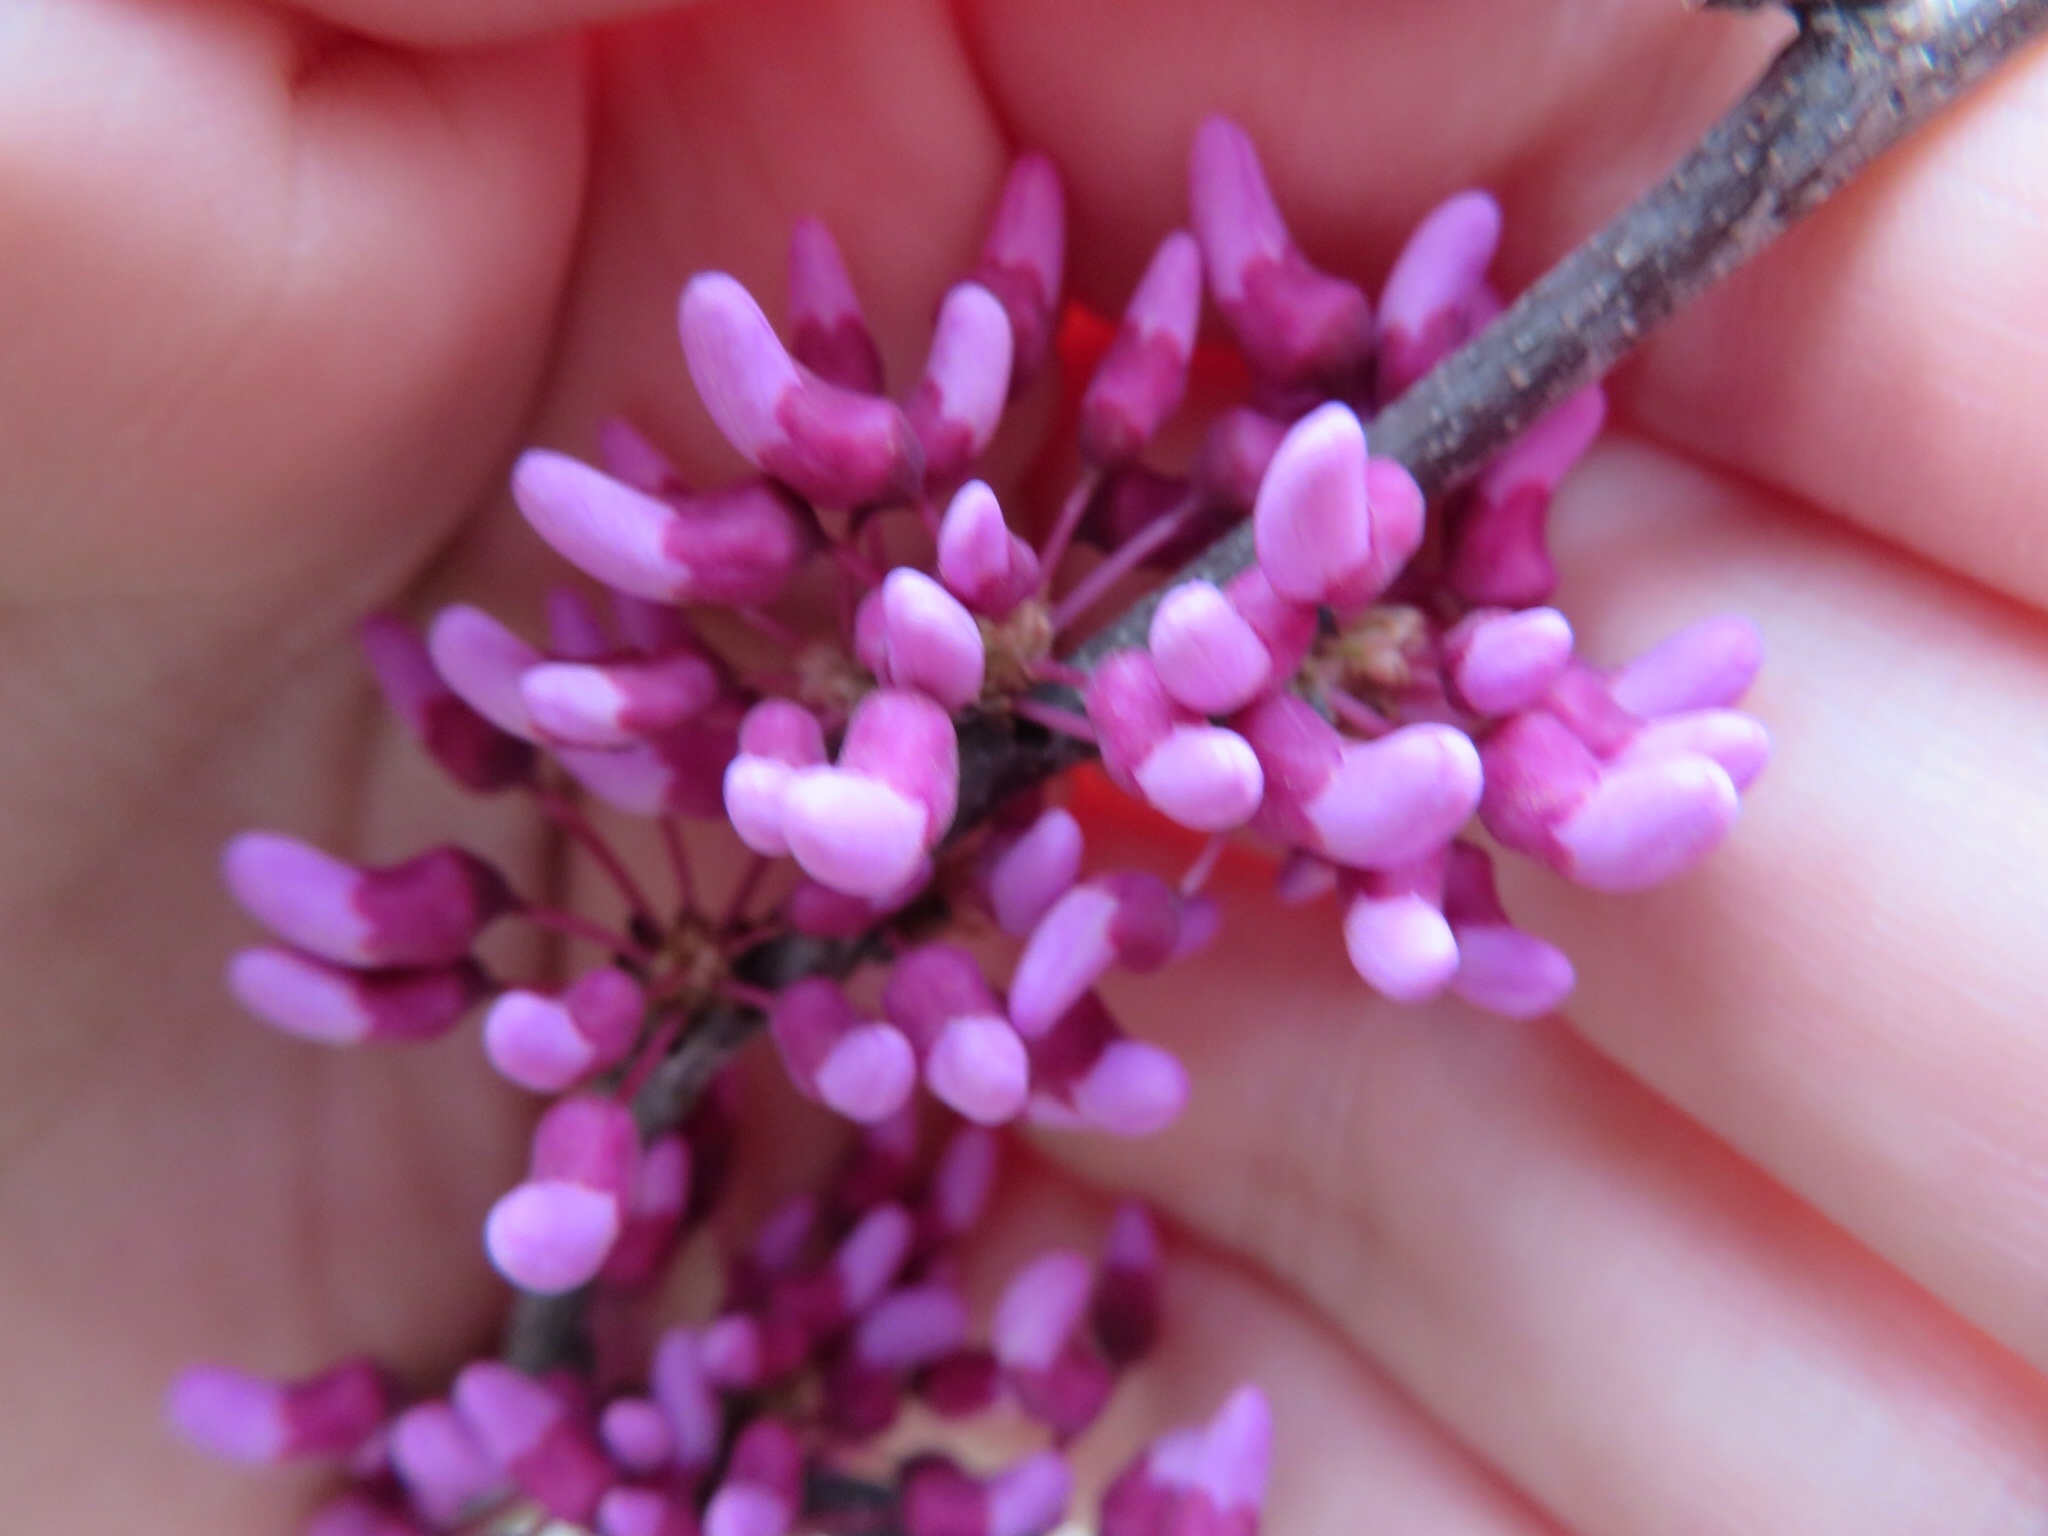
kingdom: Plantae
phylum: Tracheophyta
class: Magnoliopsida
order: Fabales
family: Fabaceae
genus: Cercis
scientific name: Cercis canadensis
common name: Eastern redbud
